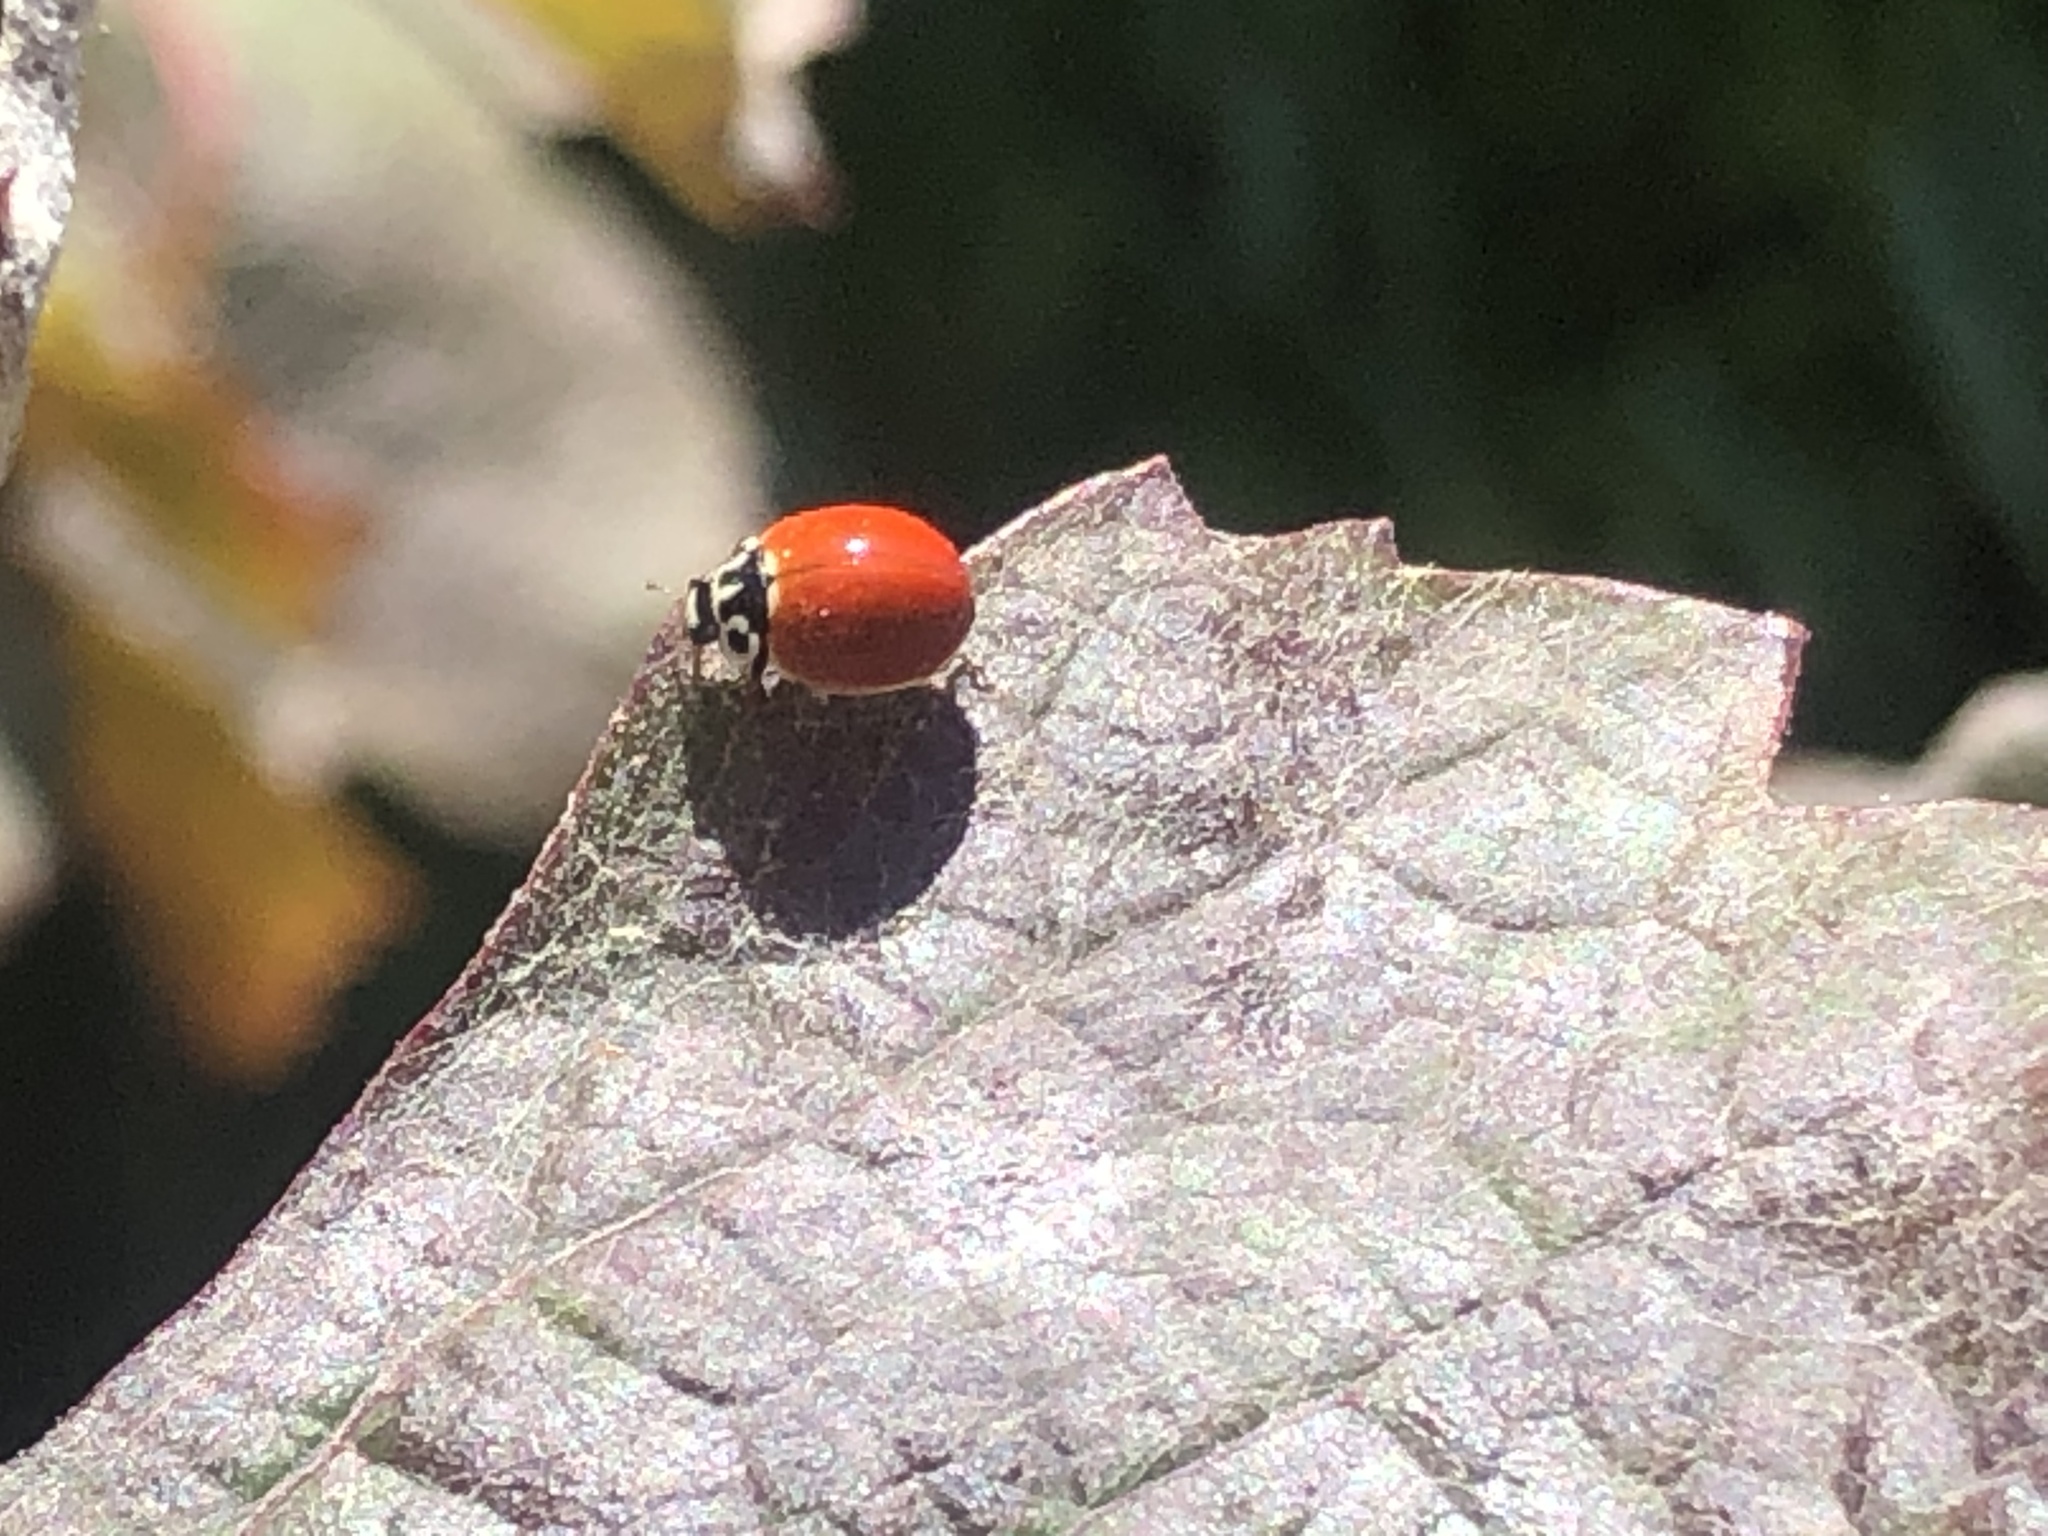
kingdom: Animalia
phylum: Arthropoda
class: Insecta
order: Coleoptera
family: Coccinellidae
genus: Cycloneda
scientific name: Cycloneda polita
